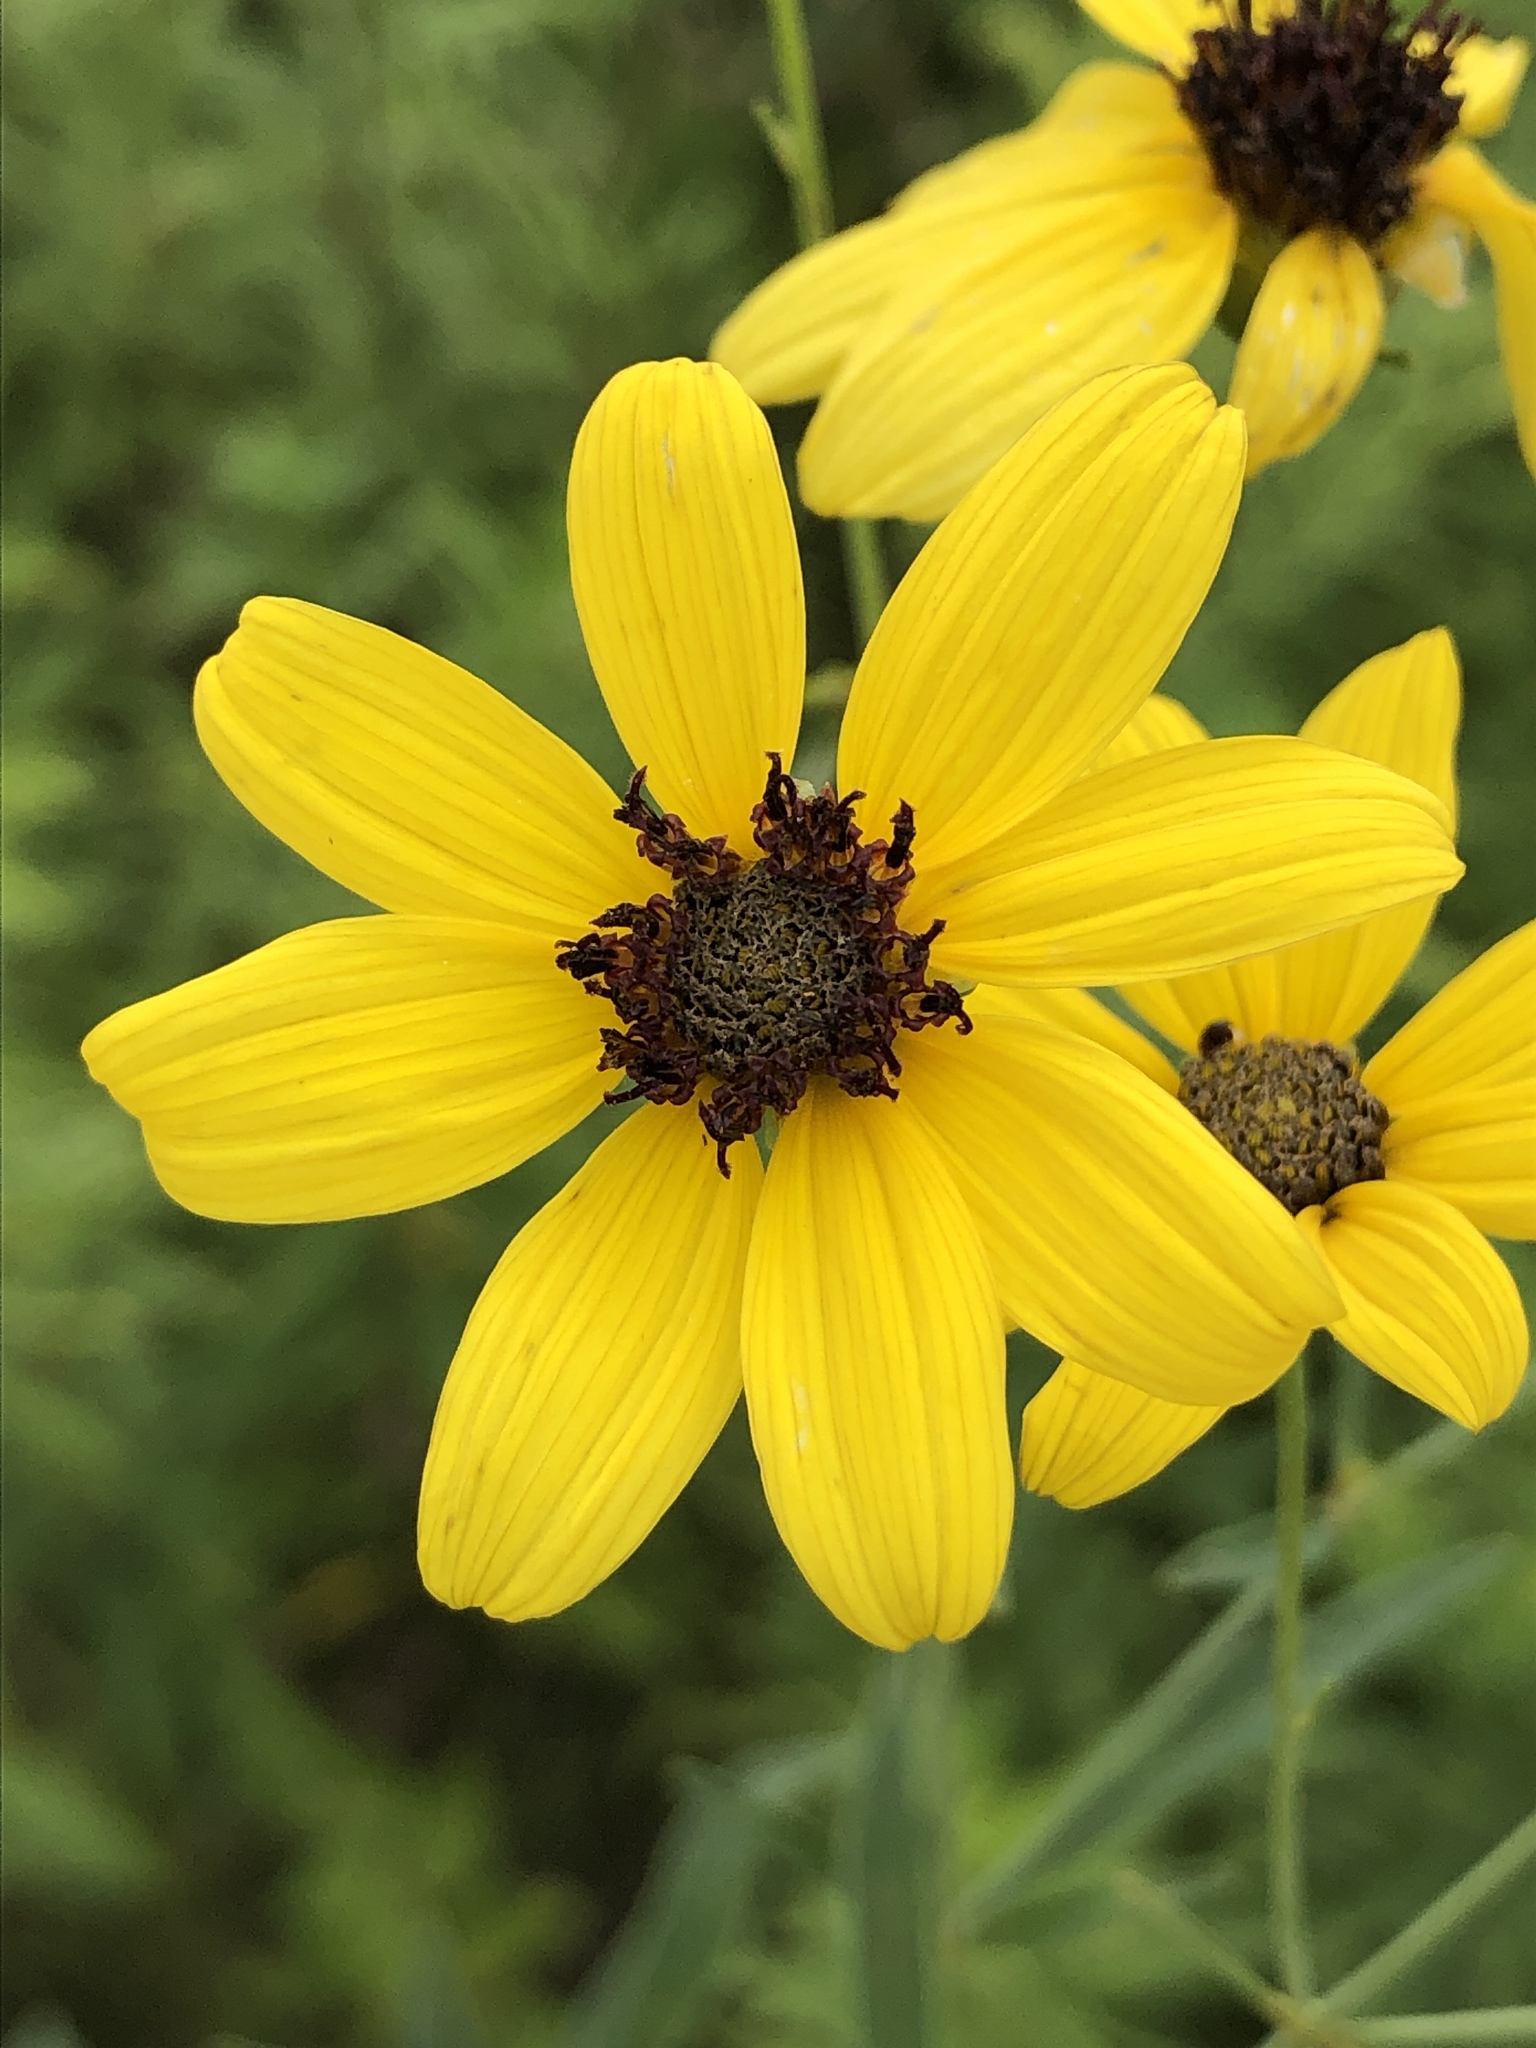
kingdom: Plantae
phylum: Tracheophyta
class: Magnoliopsida
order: Asterales
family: Asteraceae
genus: Coreopsis
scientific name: Coreopsis tripteris
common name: Tall coreopsis
